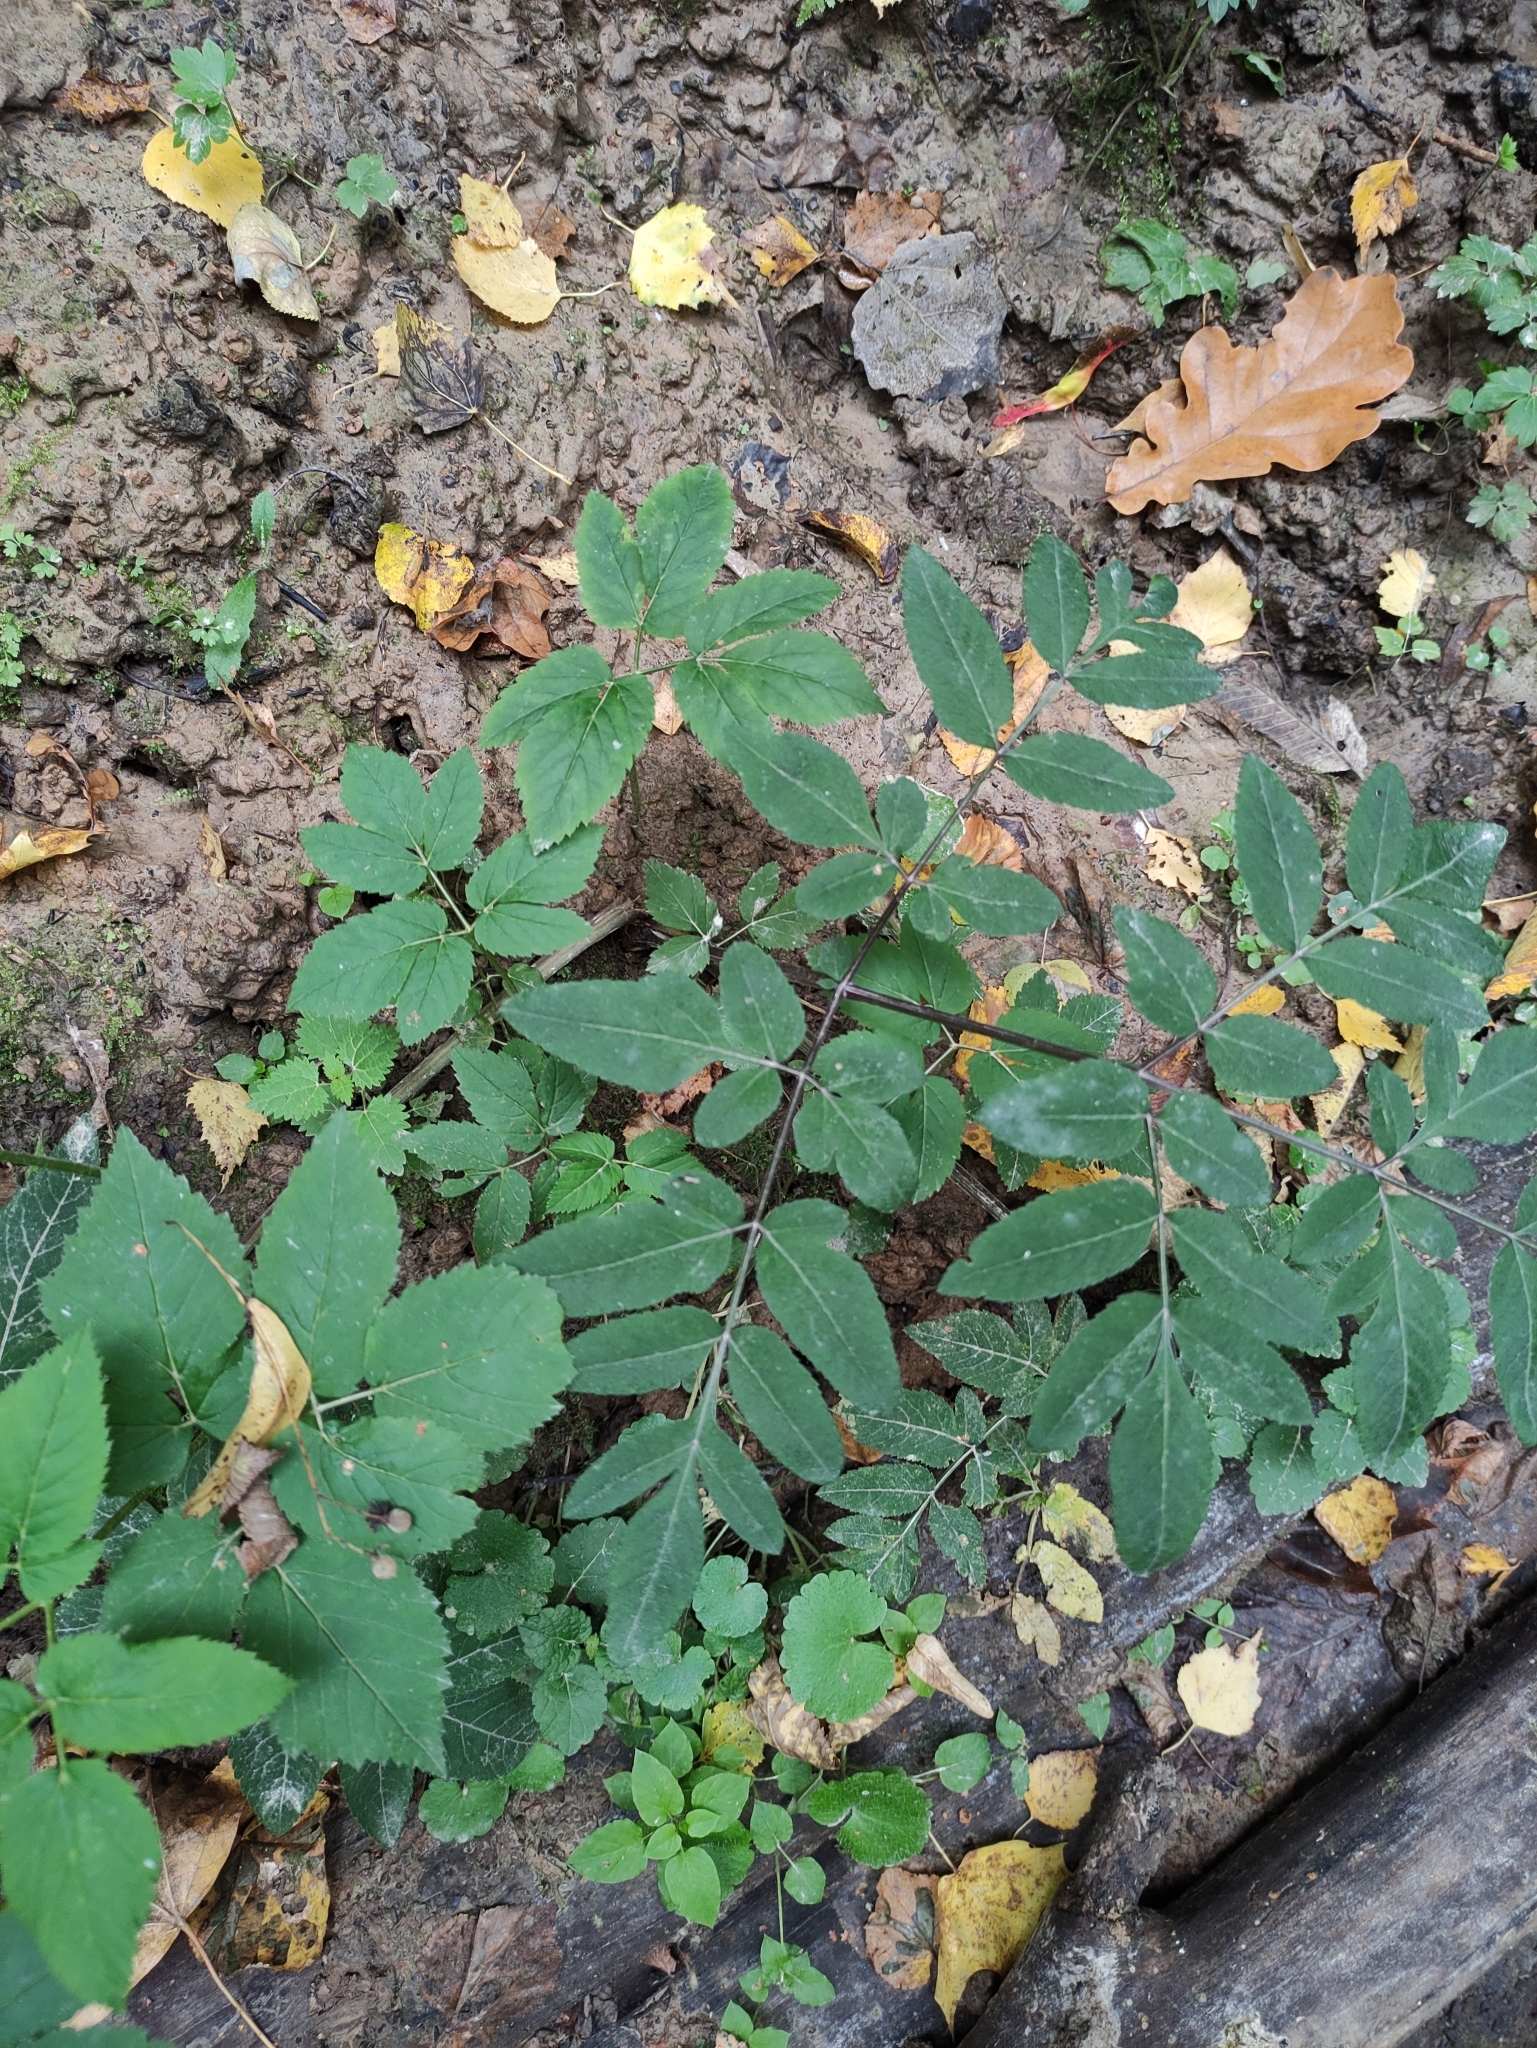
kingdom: Plantae
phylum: Tracheophyta
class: Magnoliopsida
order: Apiales
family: Apiaceae
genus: Angelica
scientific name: Angelica sylvestris
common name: Wild angelica
